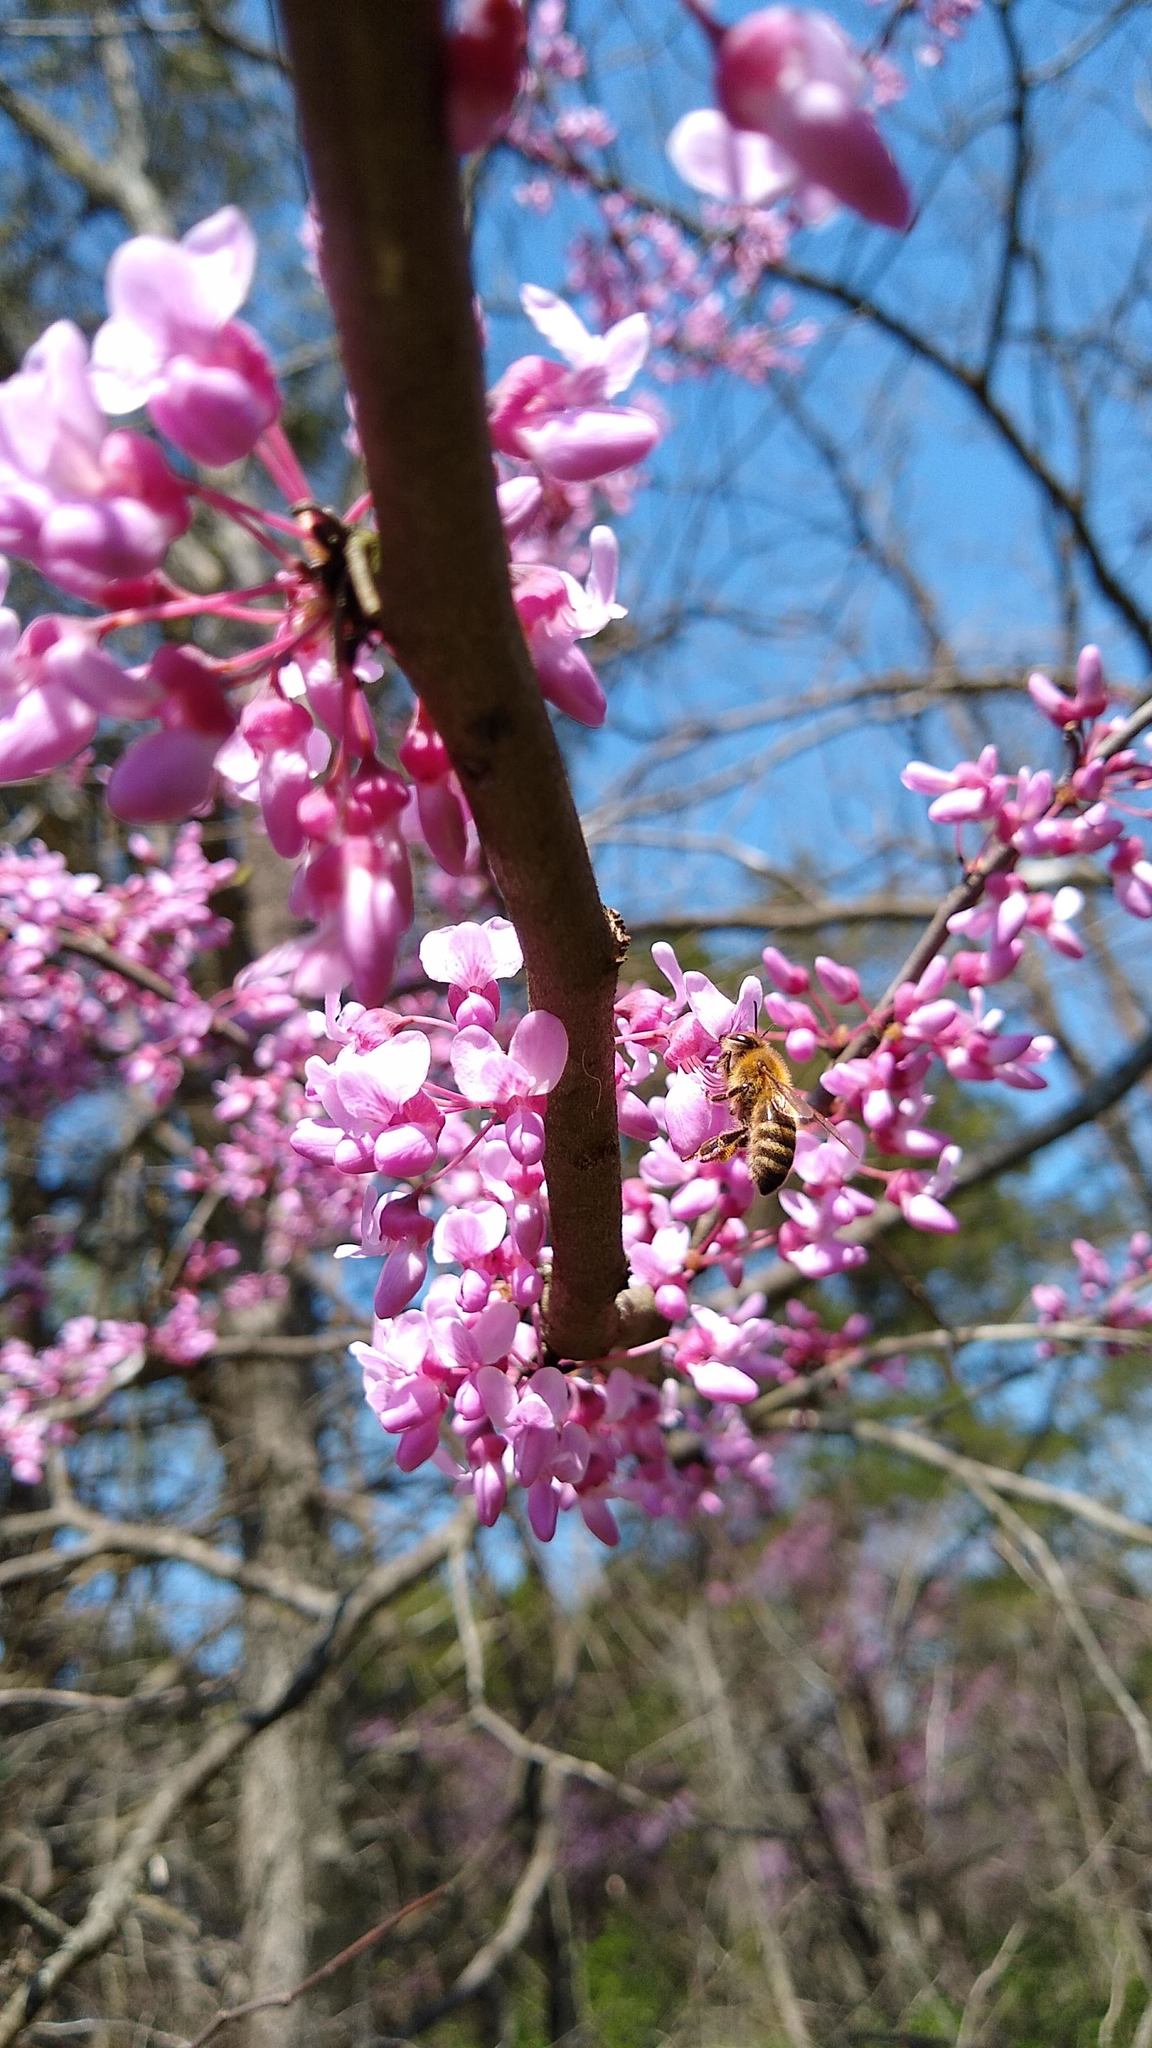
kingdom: Plantae
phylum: Tracheophyta
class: Magnoliopsida
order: Fabales
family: Fabaceae
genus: Cercis
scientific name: Cercis canadensis
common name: Eastern redbud
